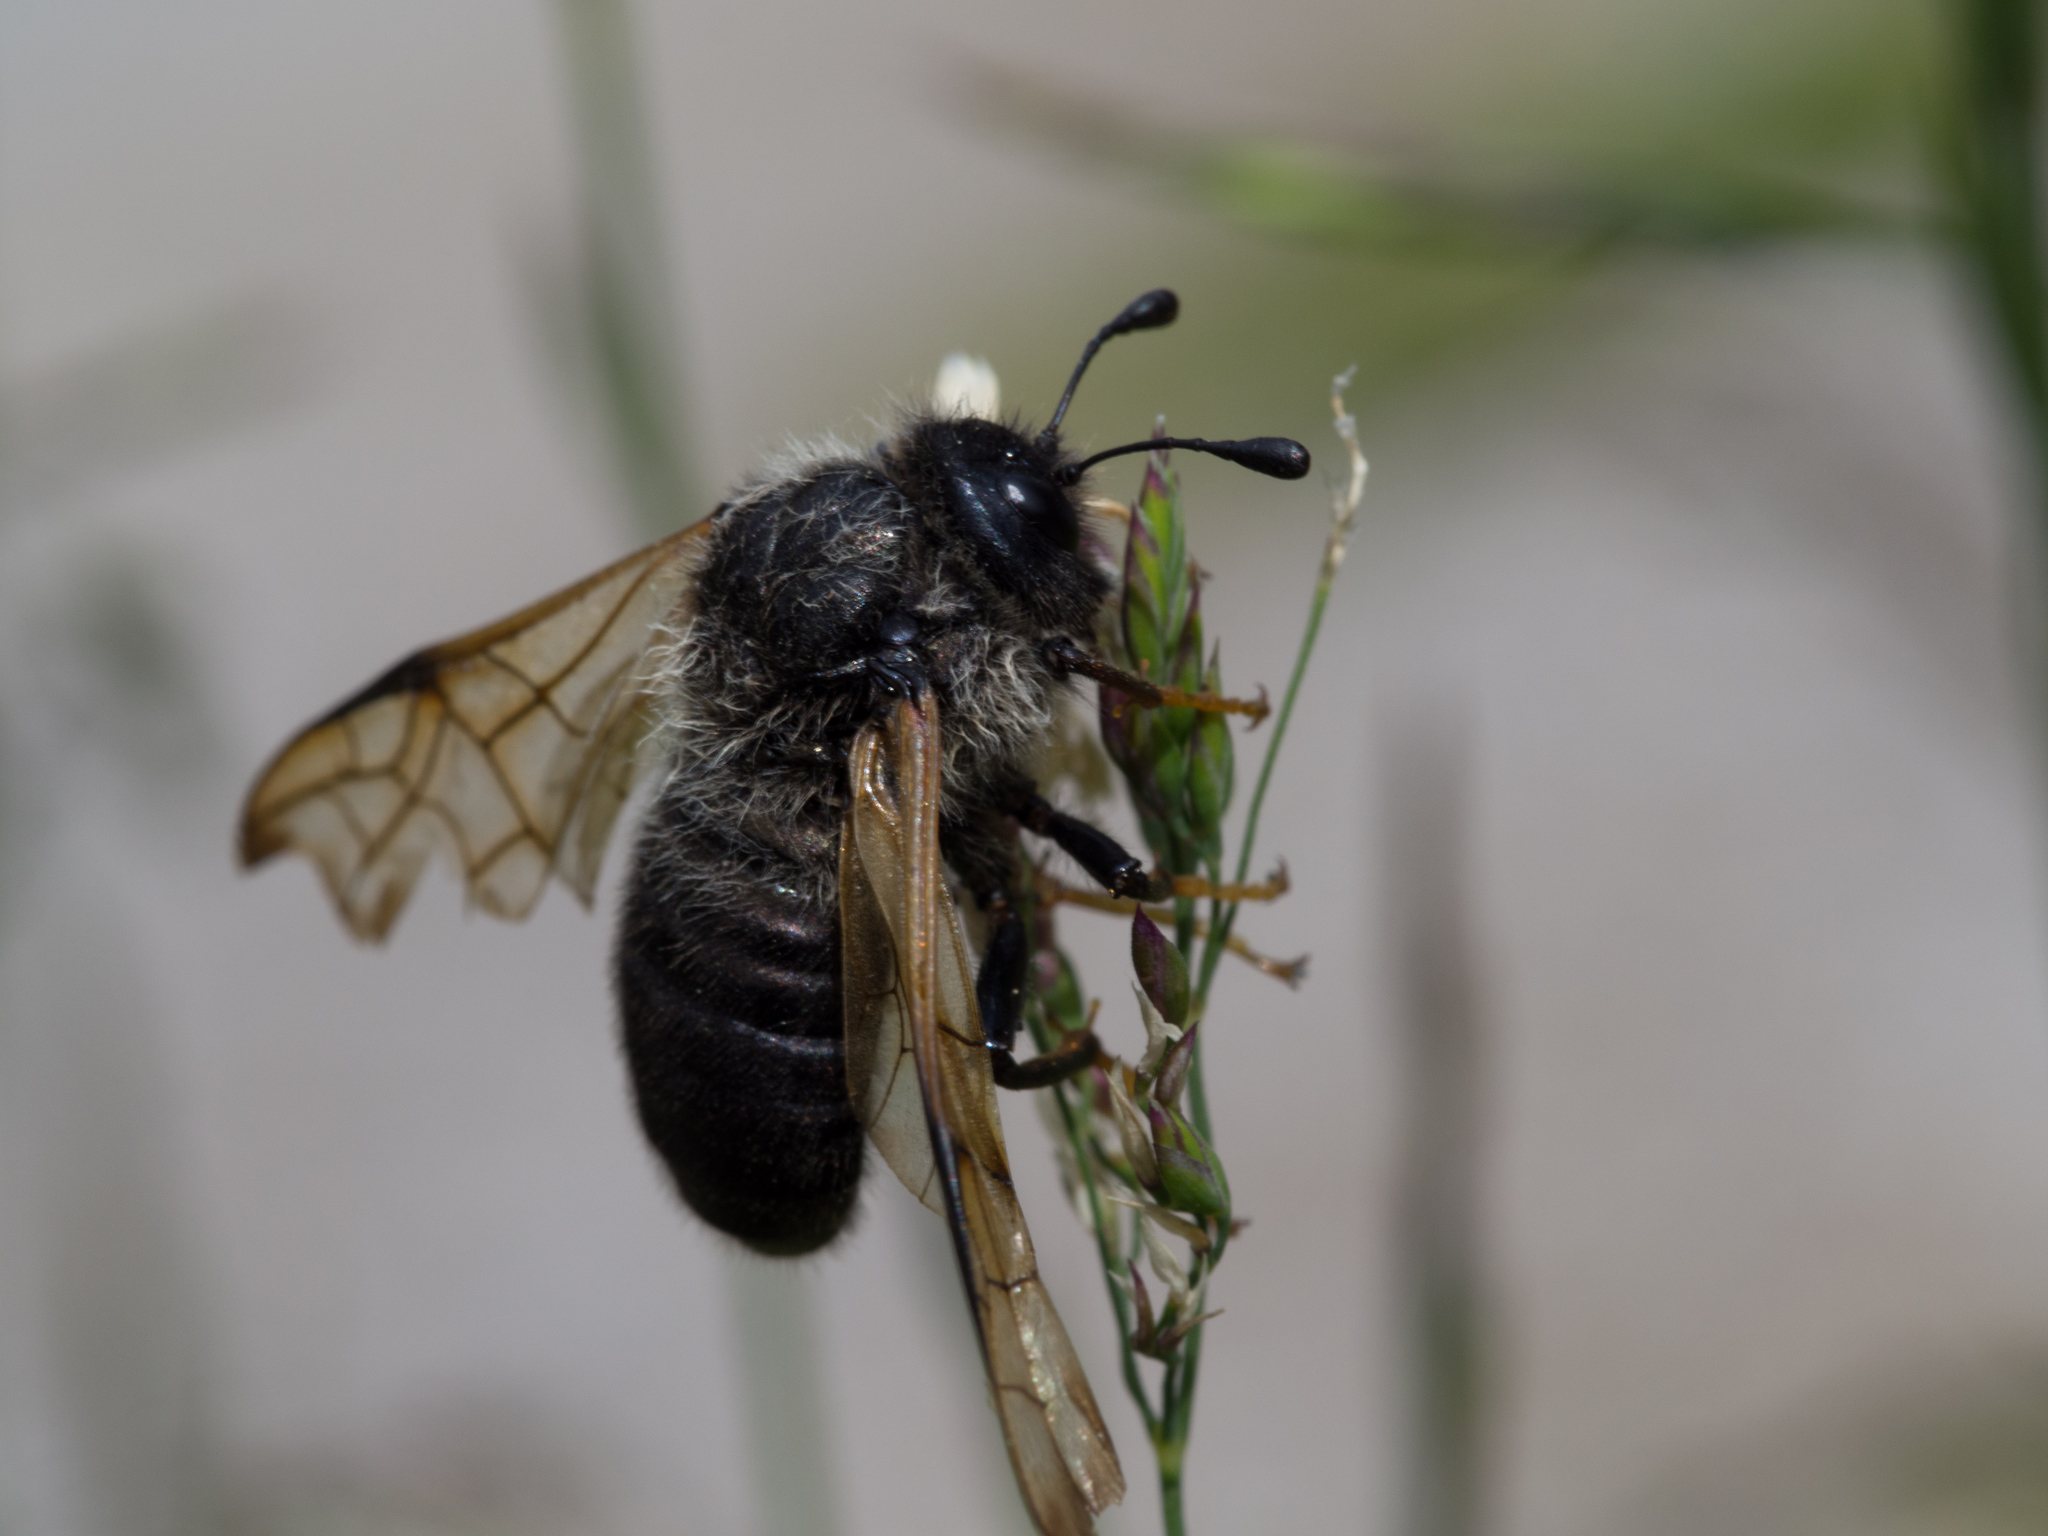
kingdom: Animalia
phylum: Arthropoda
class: Insecta
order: Hymenoptera
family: Cimbicidae
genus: Trichiosoma
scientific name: Trichiosoma
